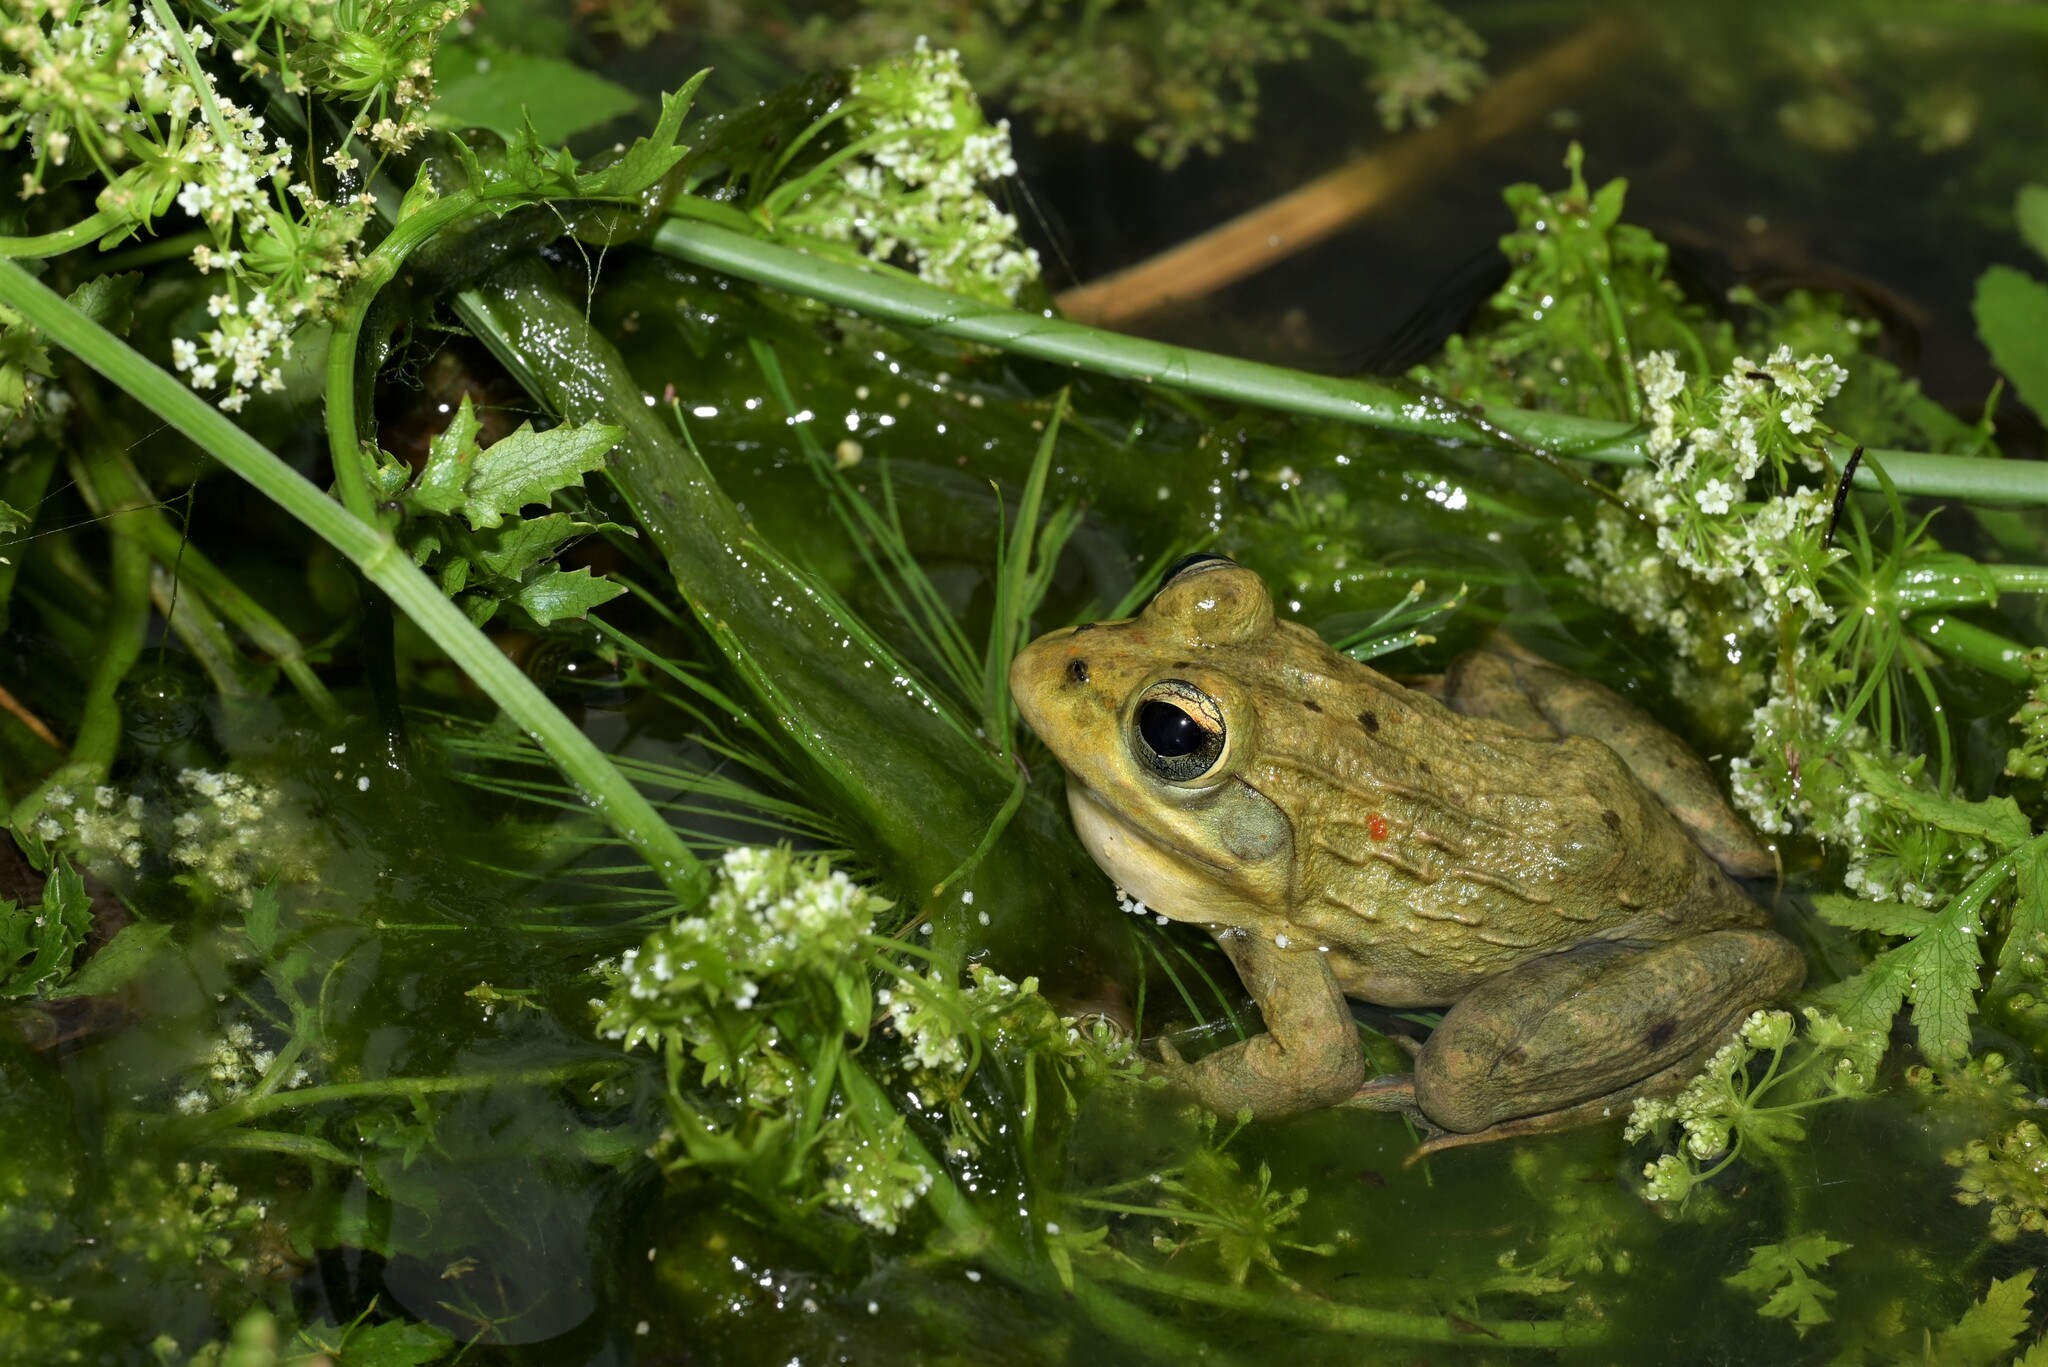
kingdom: Animalia
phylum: Chordata
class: Amphibia
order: Anura
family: Pyxicephalidae
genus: Amietia
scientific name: Amietia fuscigula
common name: Cape rana
